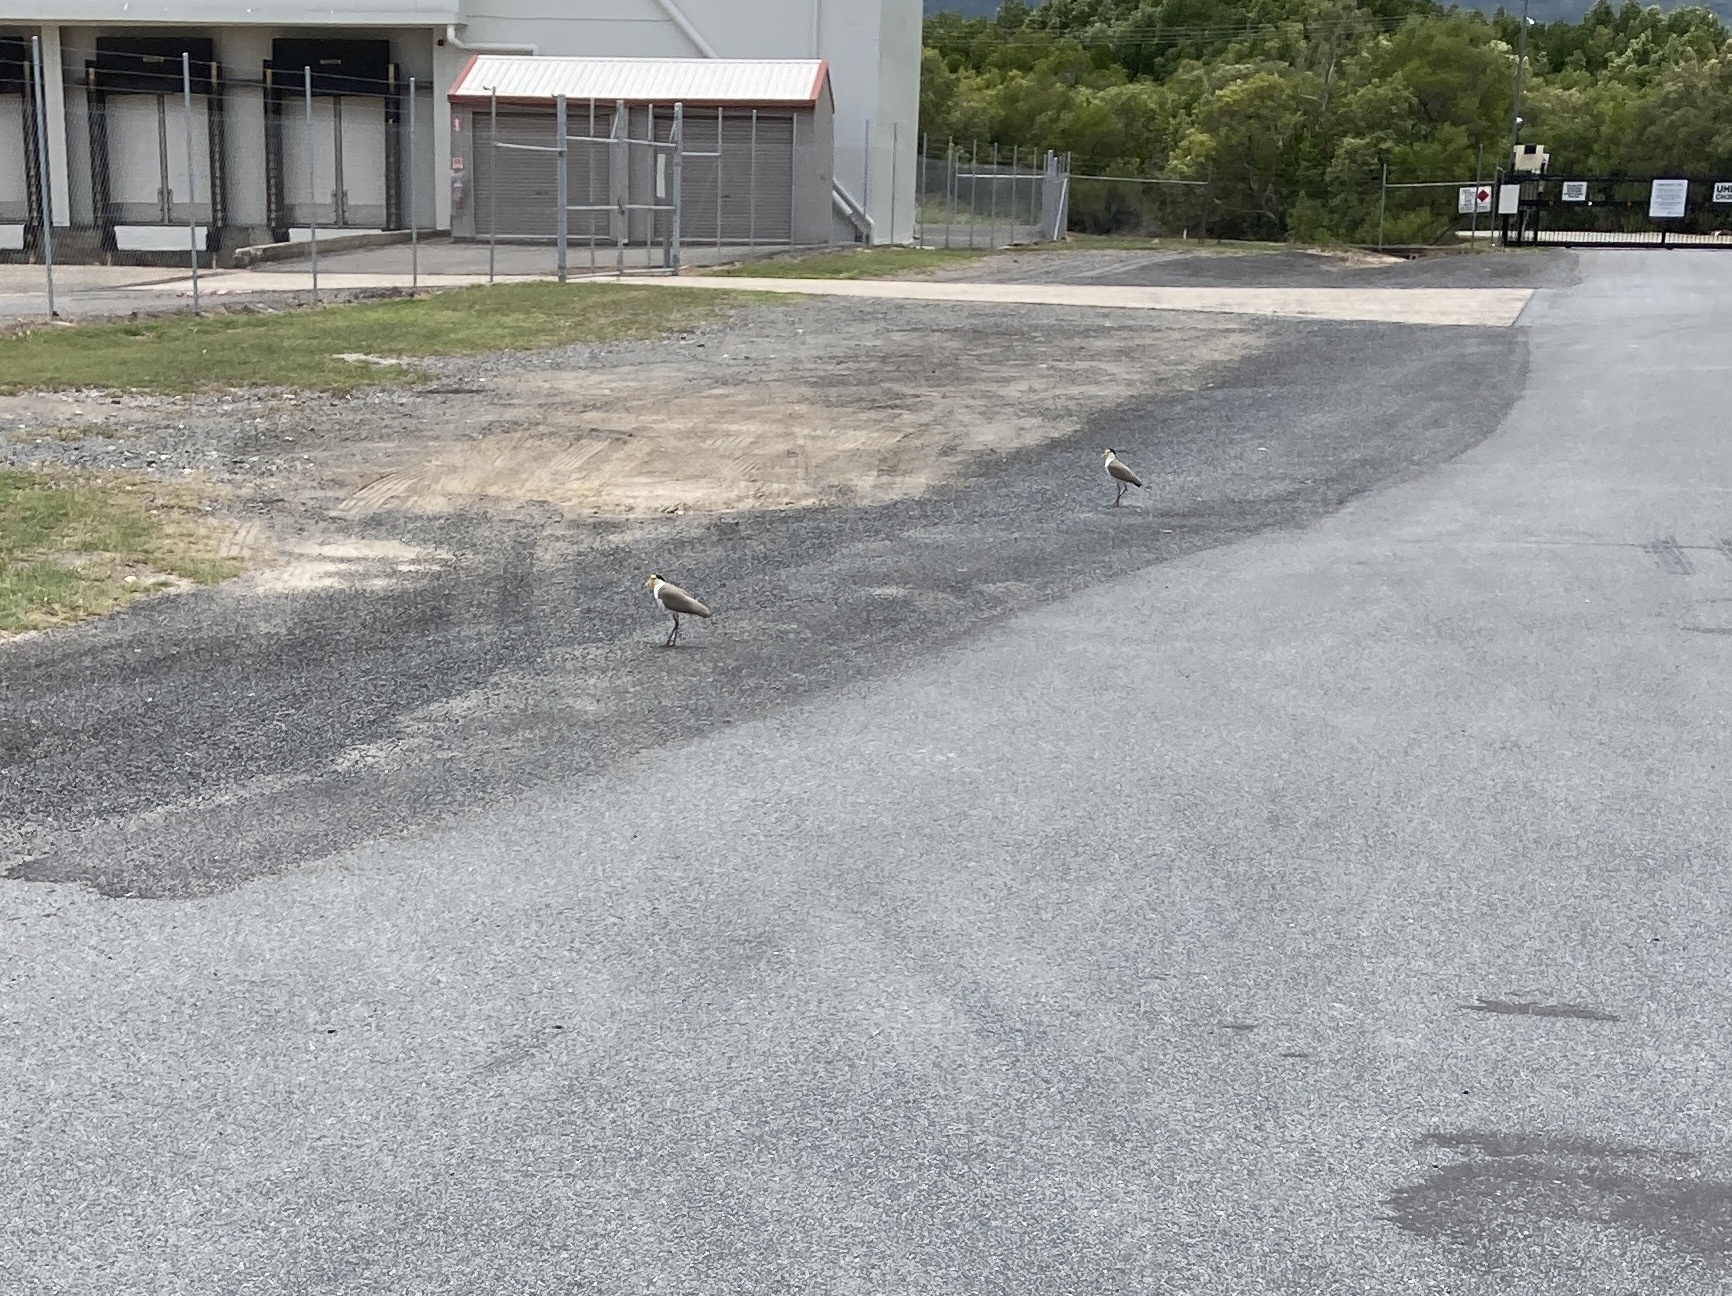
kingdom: Animalia
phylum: Chordata
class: Aves
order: Charadriiformes
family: Charadriidae
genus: Vanellus
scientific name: Vanellus miles
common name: Masked lapwing
